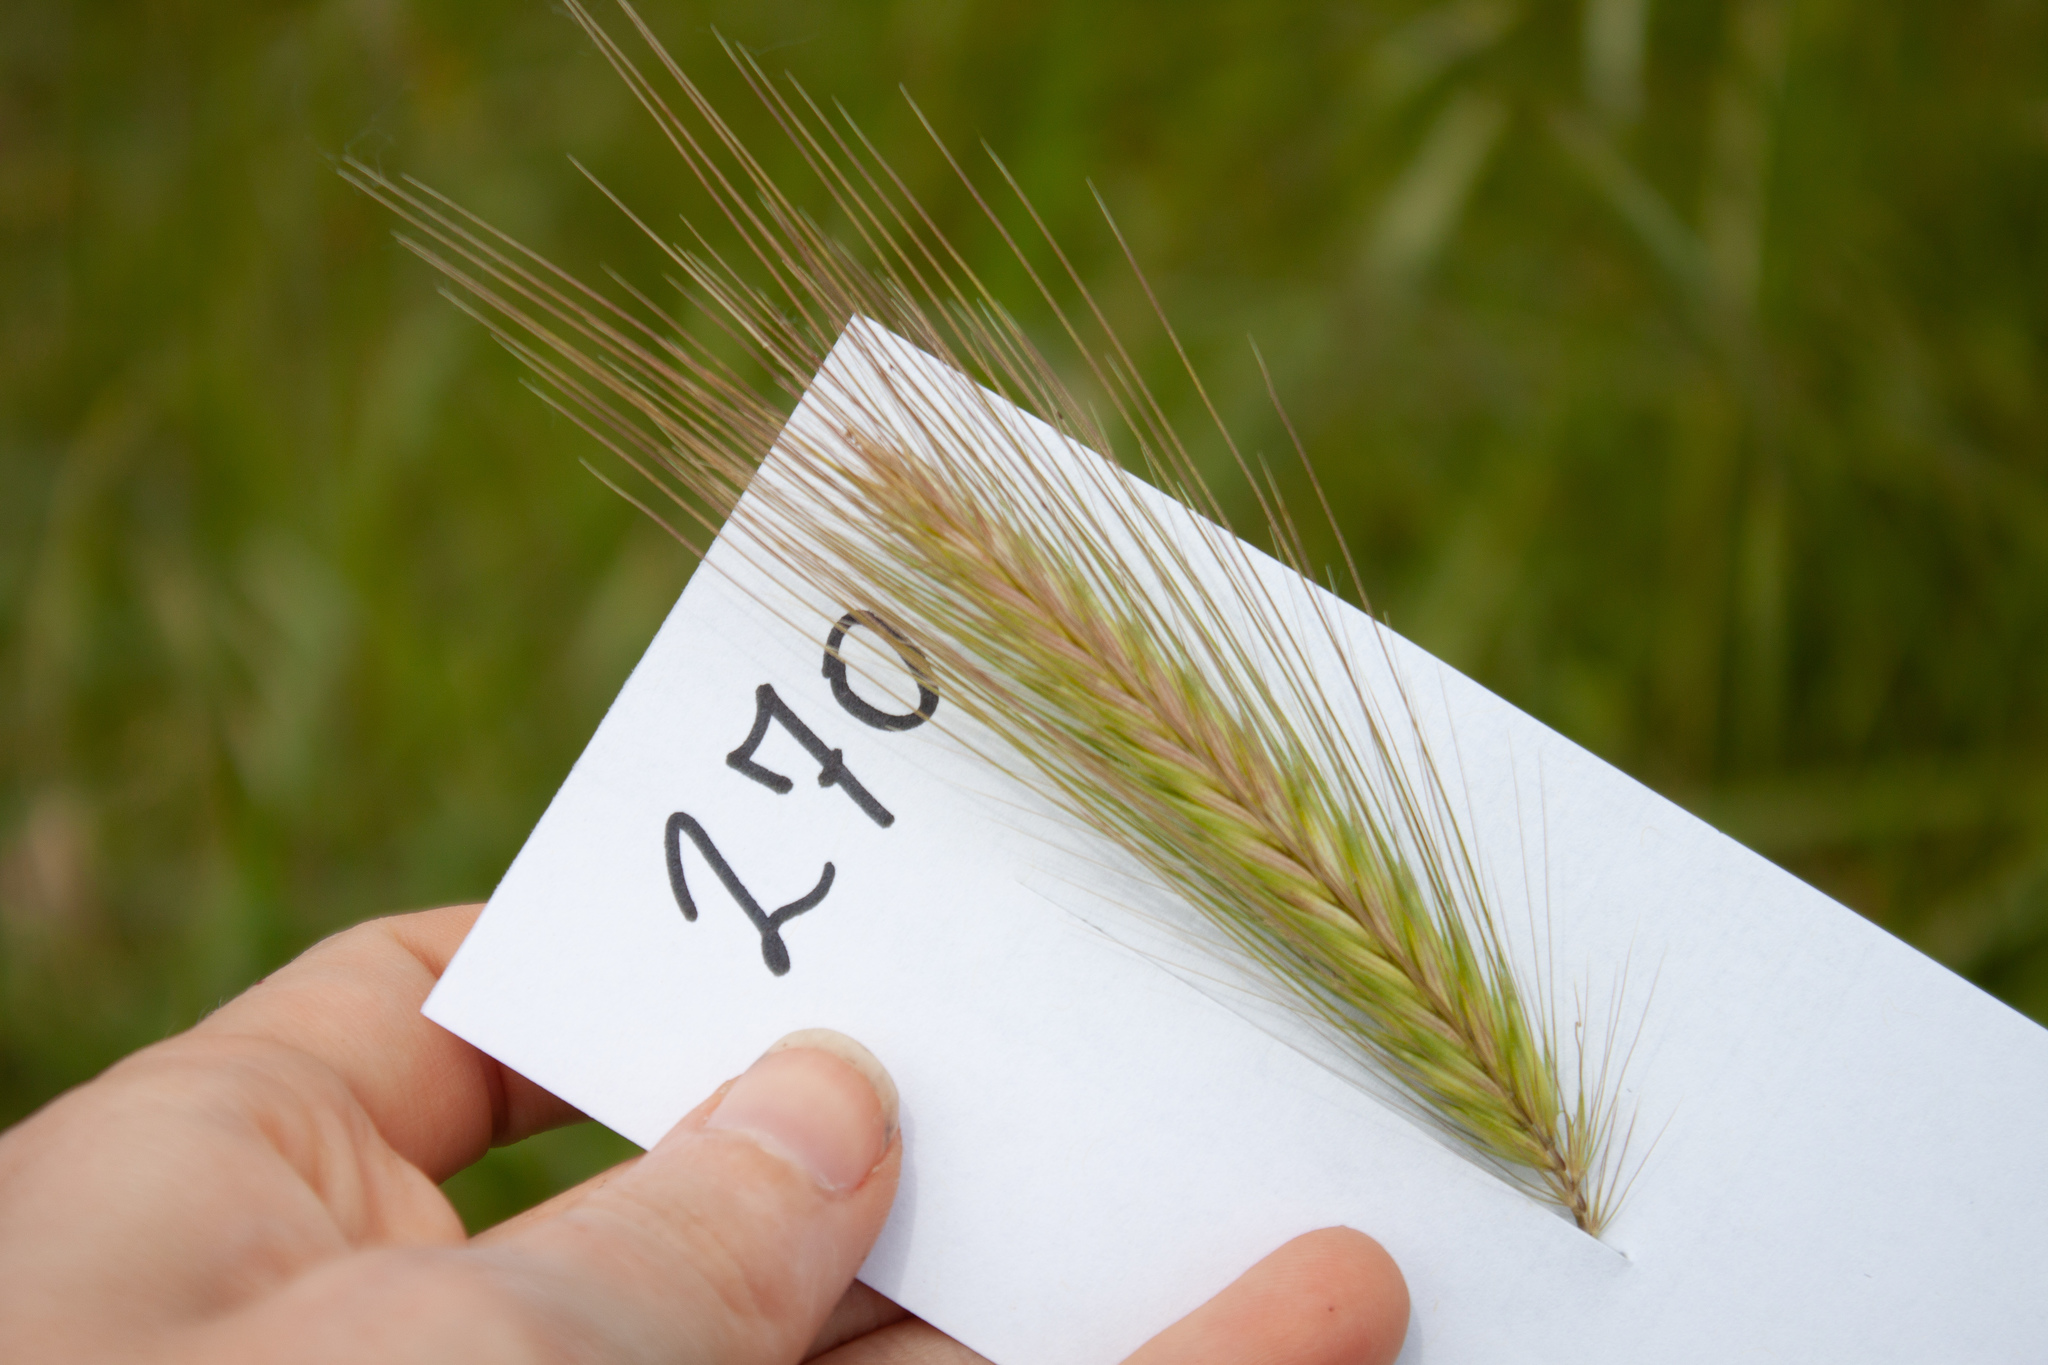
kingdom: Plantae
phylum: Tracheophyta
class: Liliopsida
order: Poales
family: Poaceae
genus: Hordeum
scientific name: Hordeum murinum
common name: Wall barley
